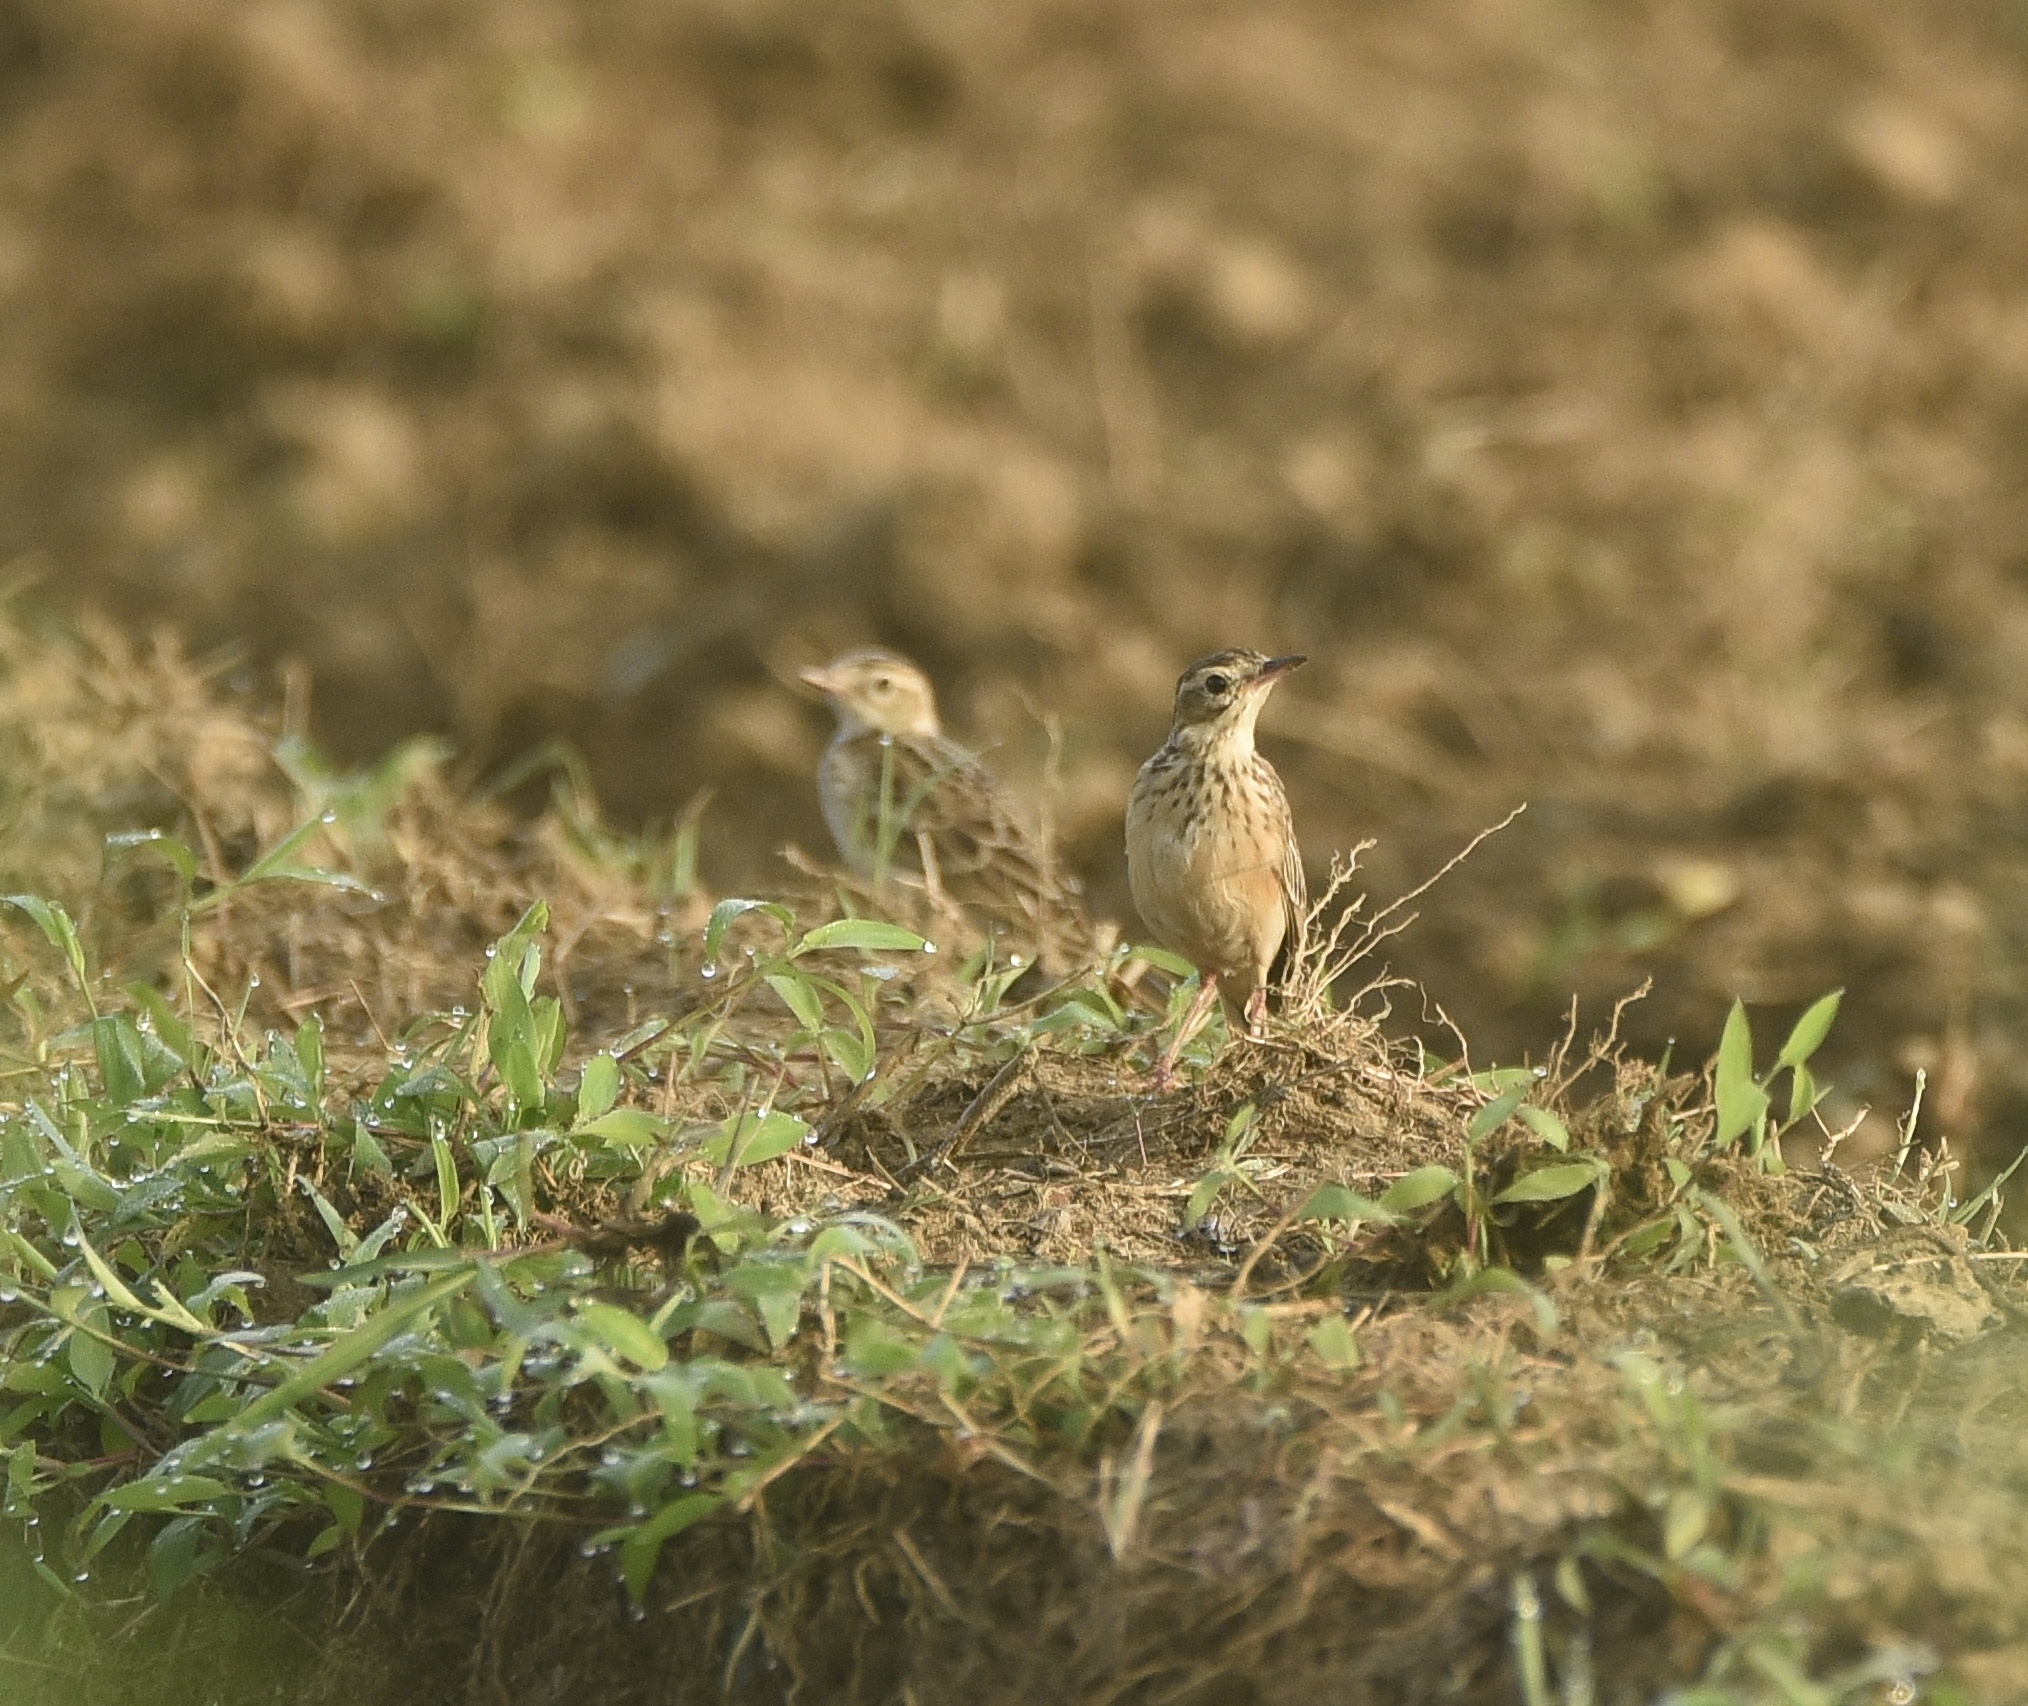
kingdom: Animalia
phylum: Chordata
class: Aves
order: Passeriformes
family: Motacillidae
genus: Anthus
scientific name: Anthus rufulus
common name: Paddyfield pipit
